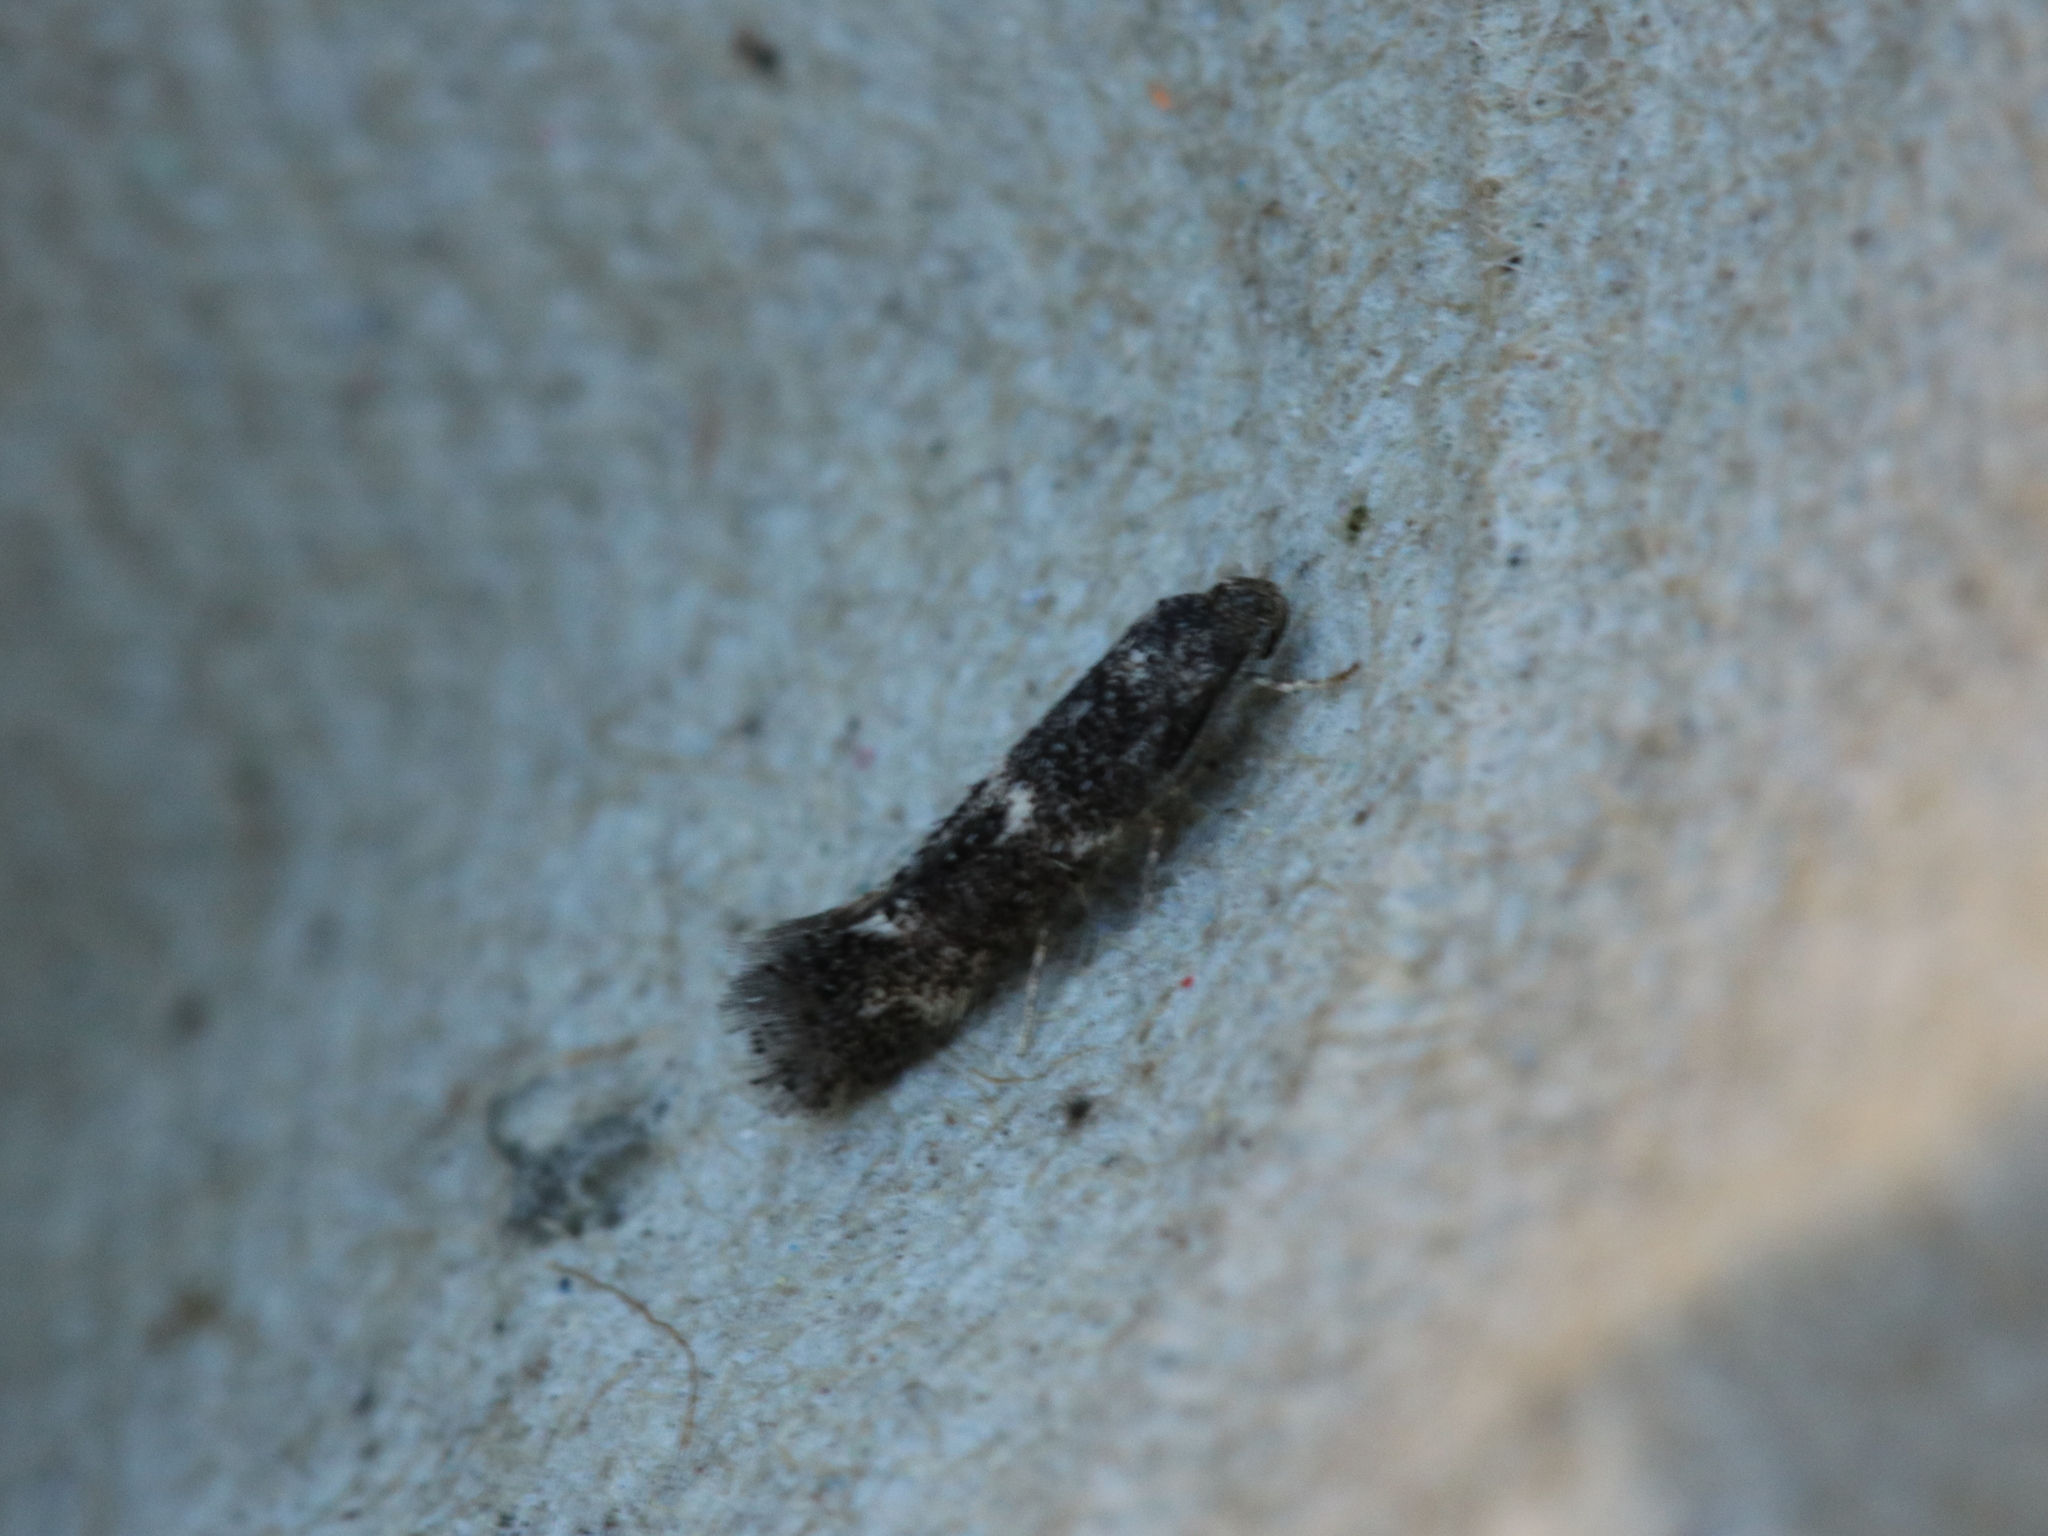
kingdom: Animalia
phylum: Arthropoda
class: Insecta
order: Lepidoptera
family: Elachistidae
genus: Elachista
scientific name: Elachista atricomella
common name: Black-headed dwarf
